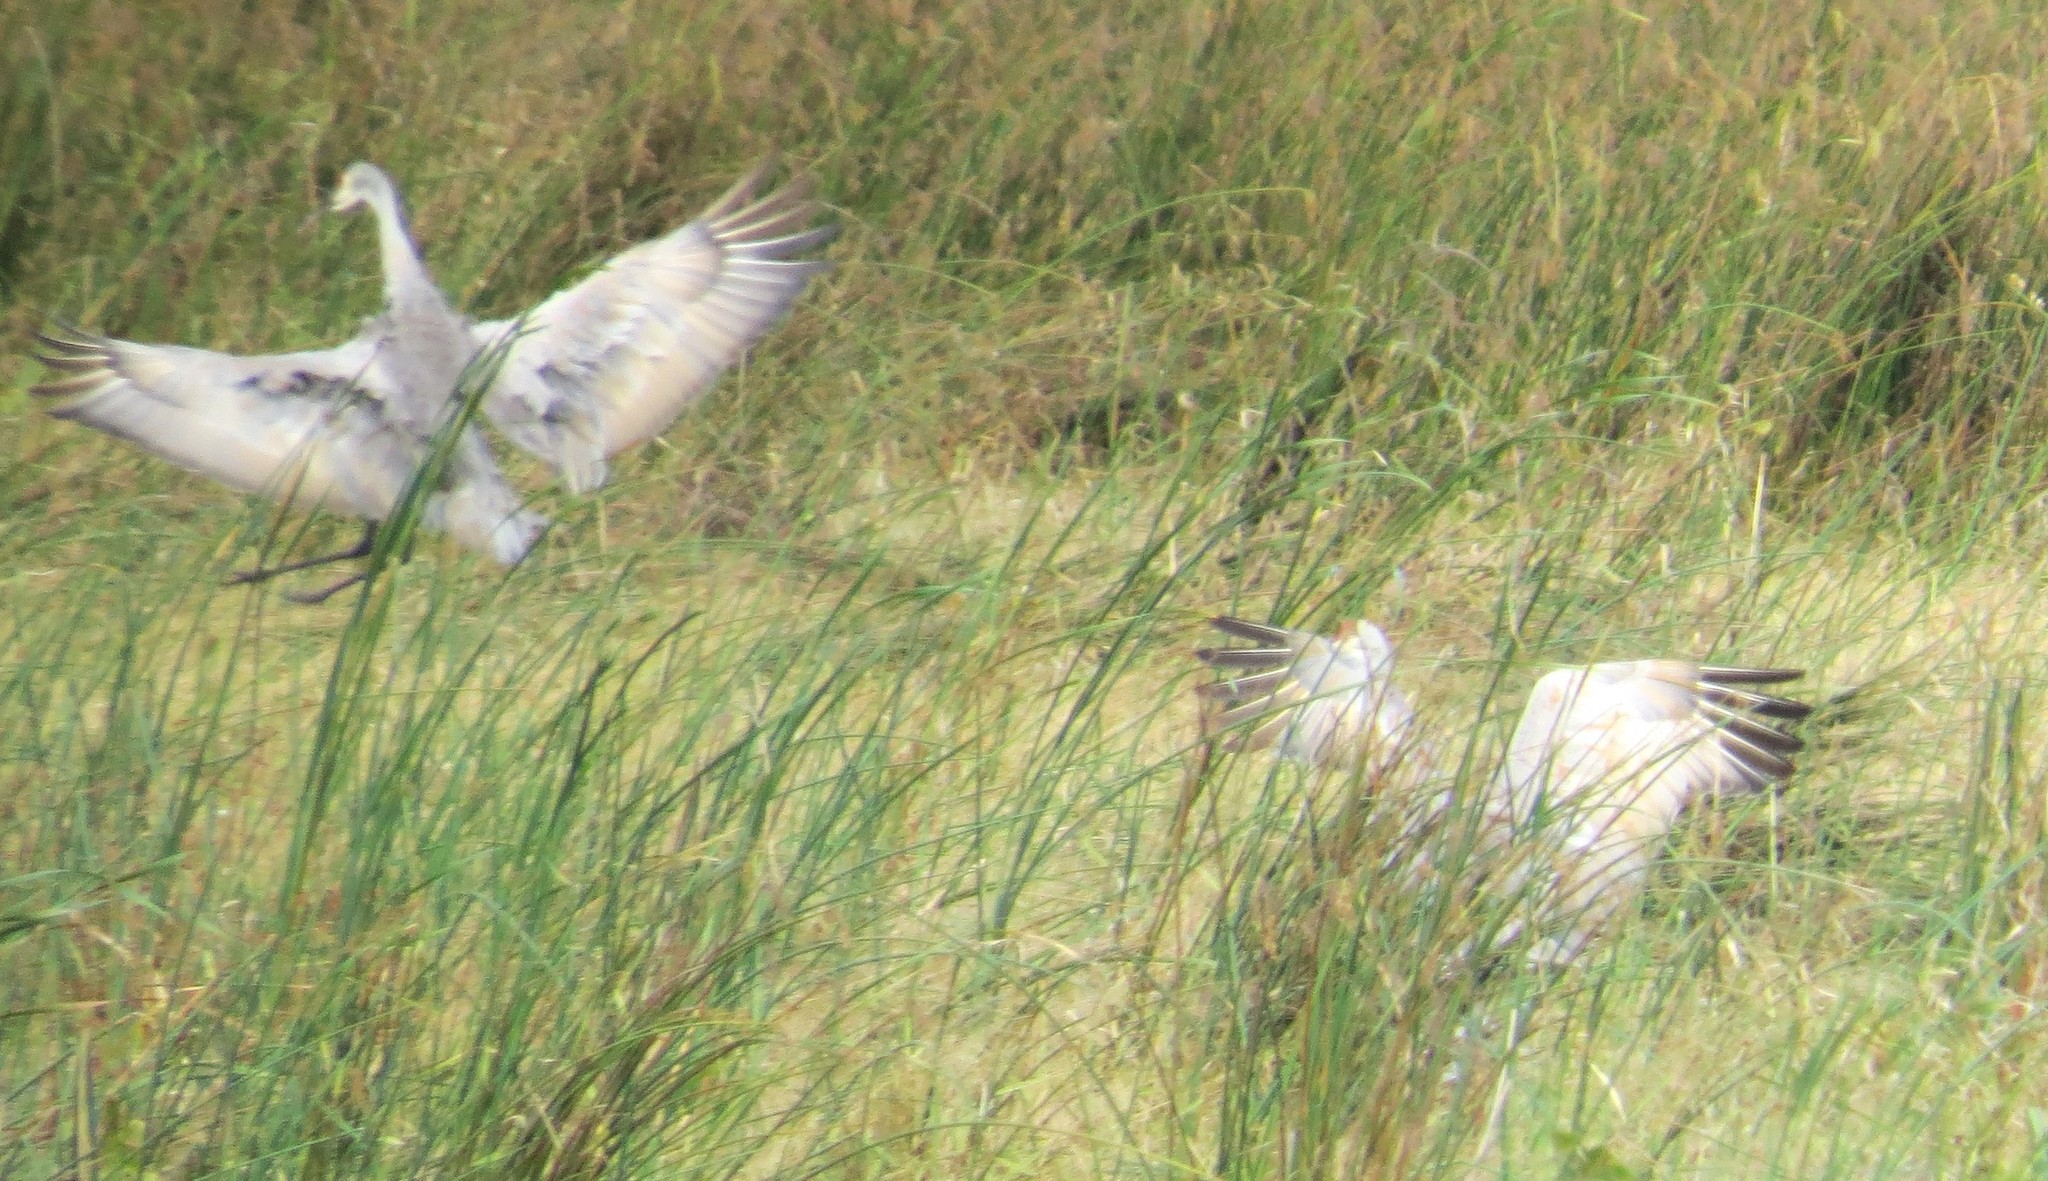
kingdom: Animalia
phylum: Chordata
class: Aves
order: Gruiformes
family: Gruidae
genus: Grus
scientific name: Grus canadensis
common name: Sandhill crane
